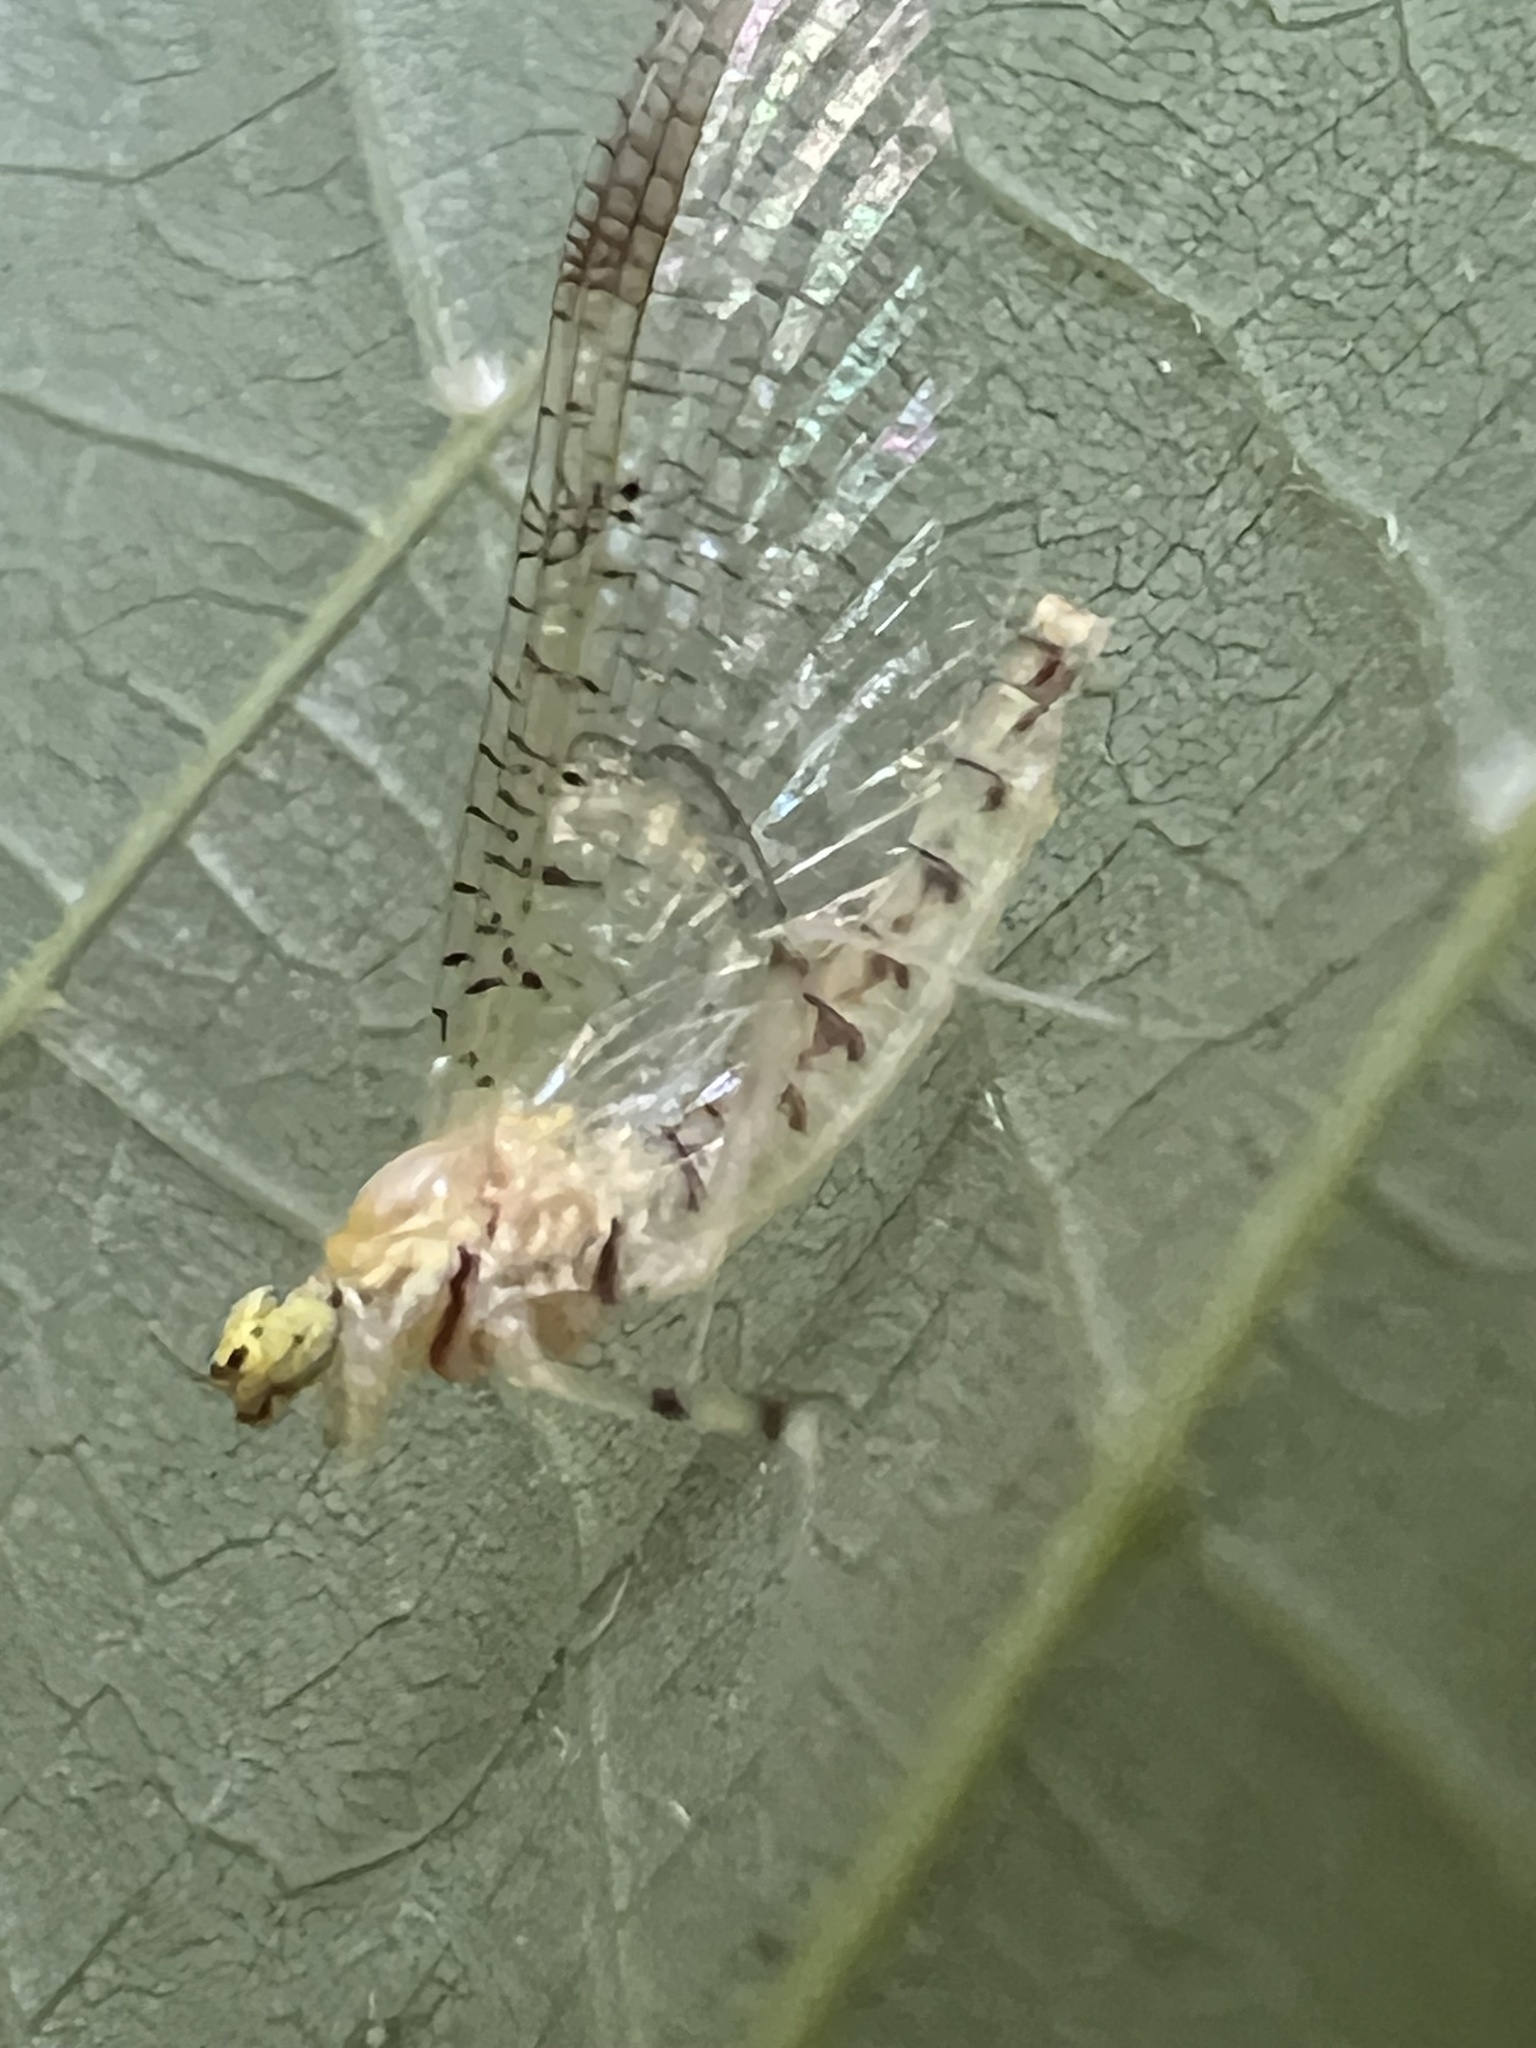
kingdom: Animalia
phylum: Arthropoda
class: Insecta
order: Ephemeroptera
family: Heptageniidae
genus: Stenacron
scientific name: Stenacron interpunctatum
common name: Orange cahill
